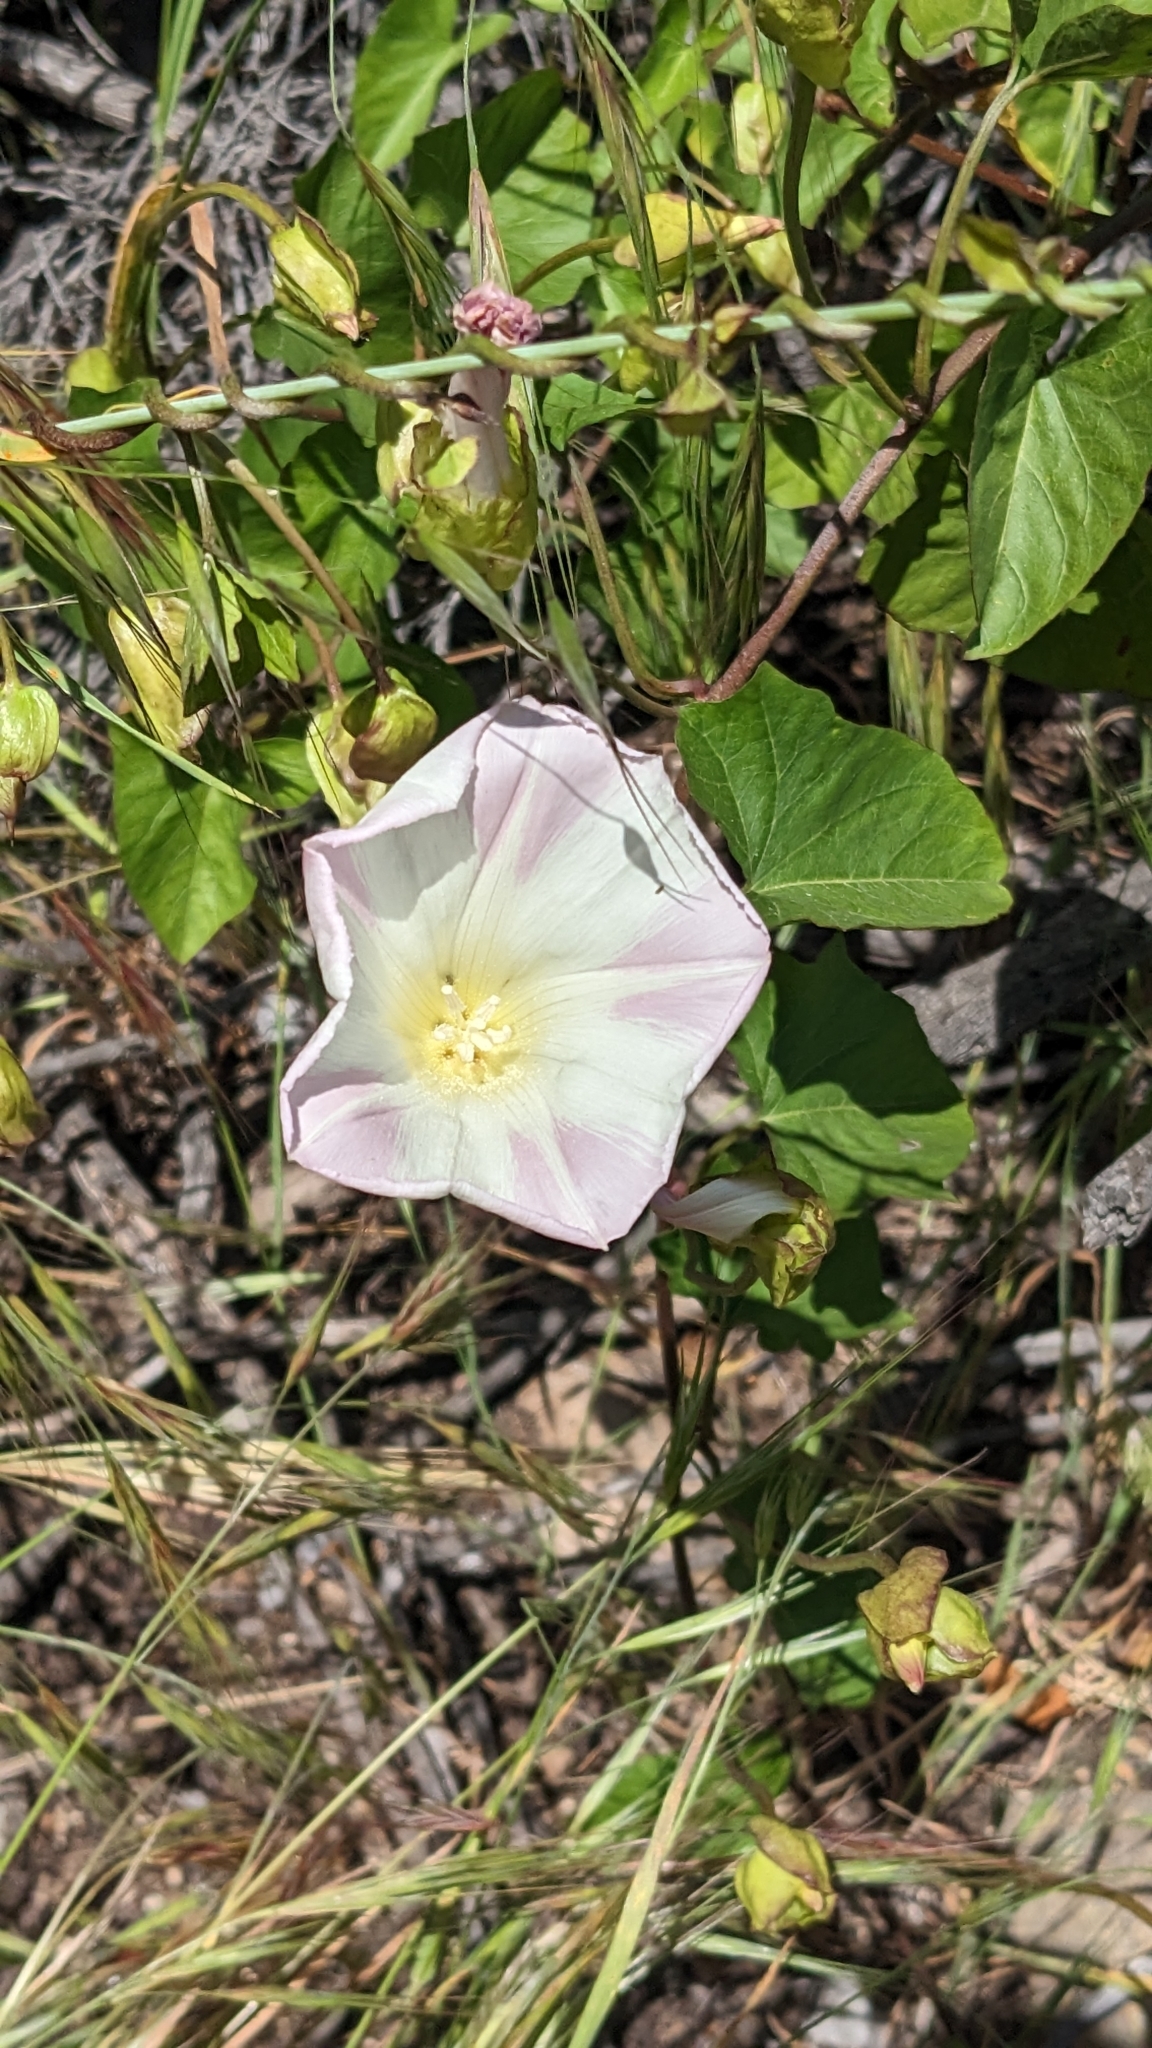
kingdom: Plantae
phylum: Tracheophyta
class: Magnoliopsida
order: Solanales
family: Convolvulaceae
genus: Calystegia
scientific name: Calystegia macrostegia
